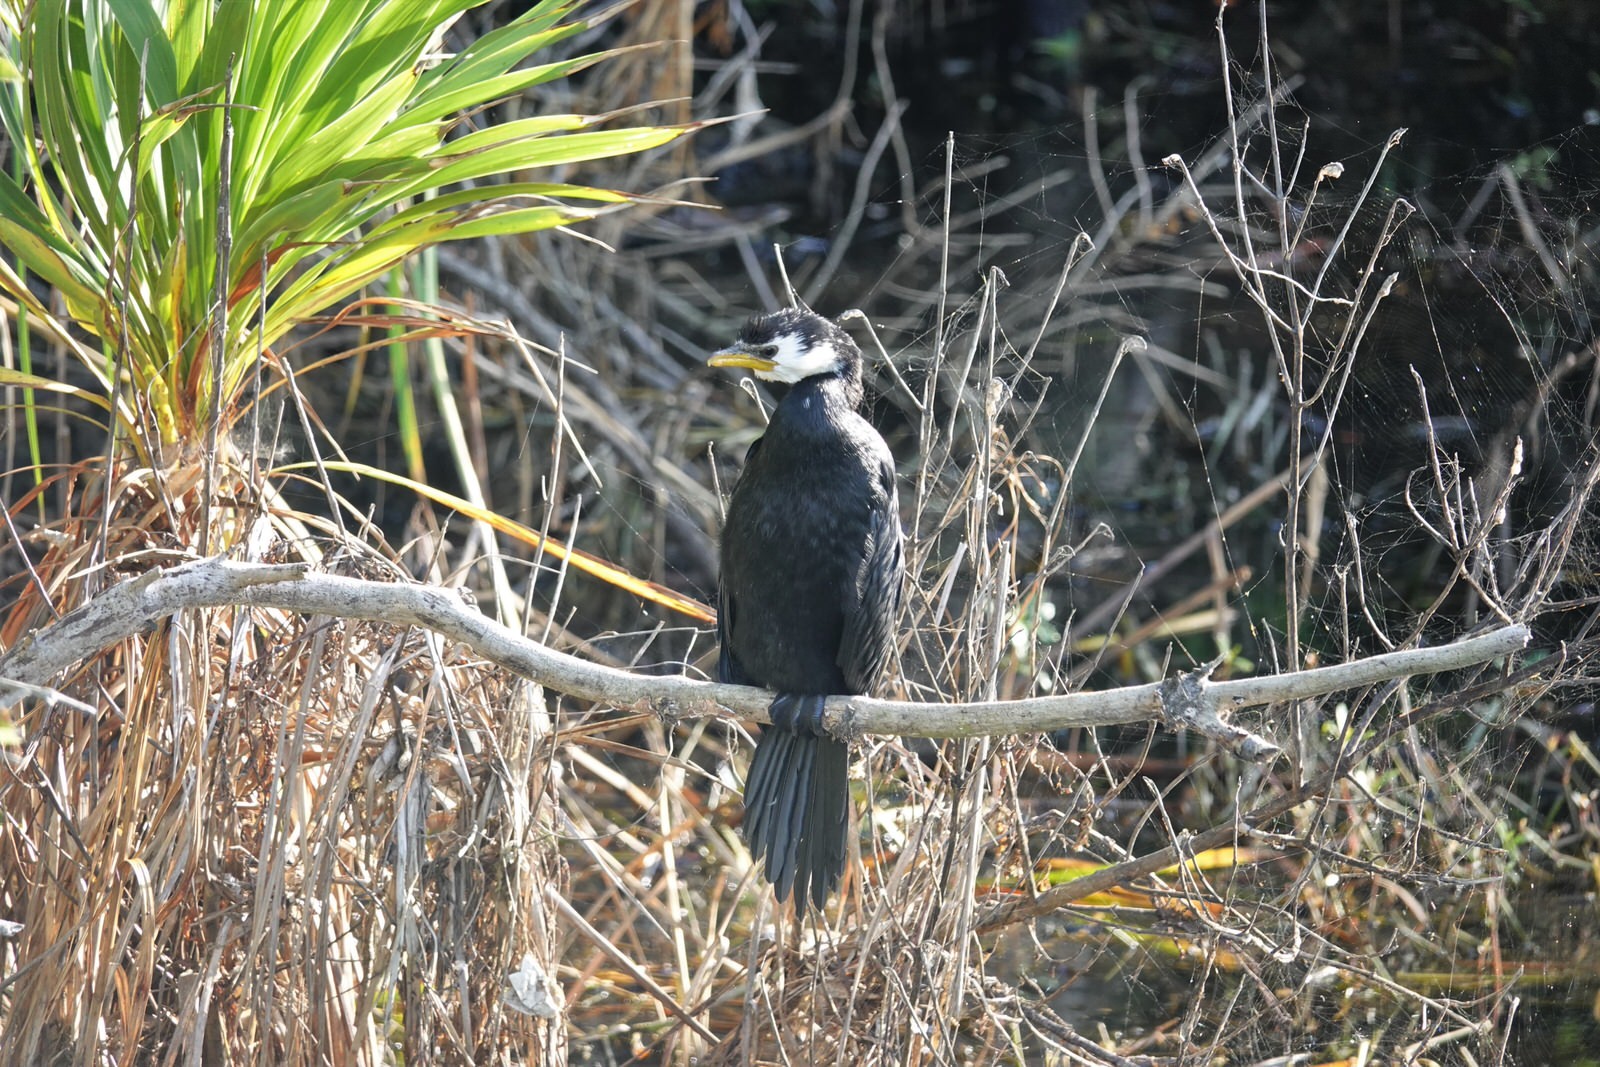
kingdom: Animalia
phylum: Chordata
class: Aves
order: Suliformes
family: Phalacrocoracidae
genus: Microcarbo
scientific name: Microcarbo melanoleucos
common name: Little pied cormorant
